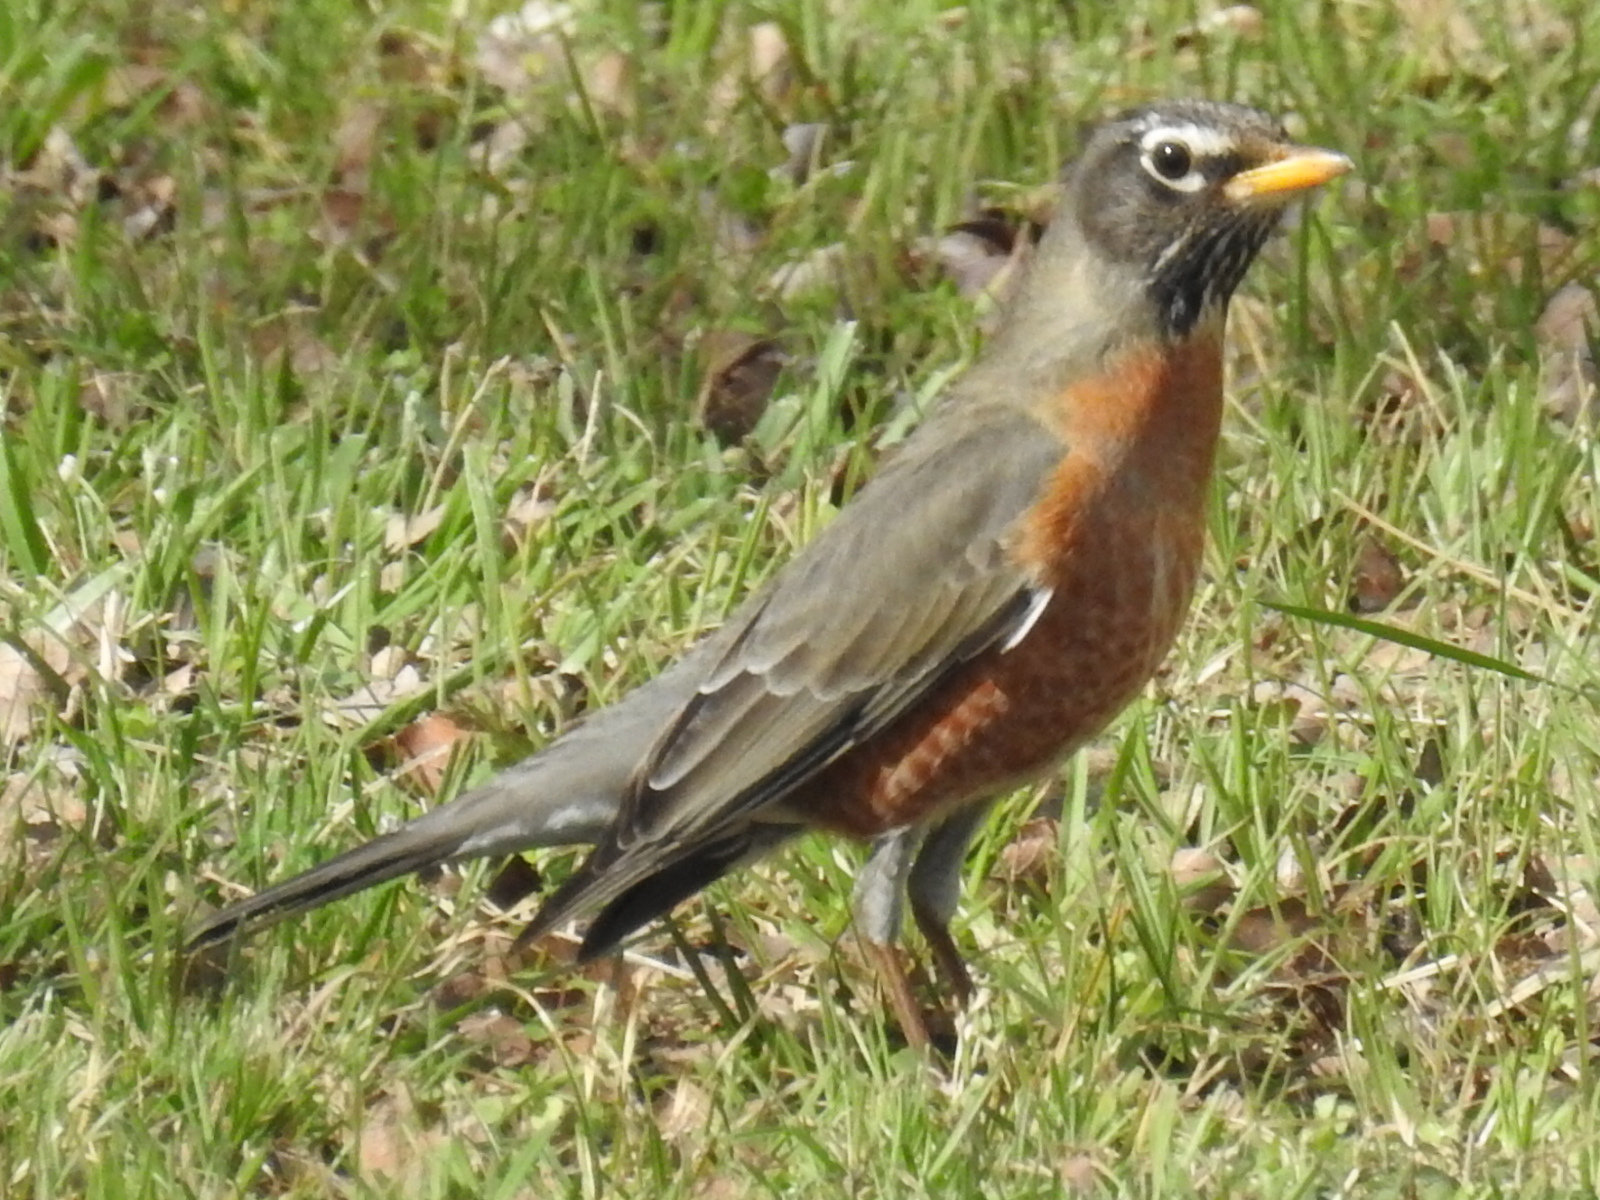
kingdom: Animalia
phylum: Chordata
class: Aves
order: Passeriformes
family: Turdidae
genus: Turdus
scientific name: Turdus migratorius
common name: American robin
